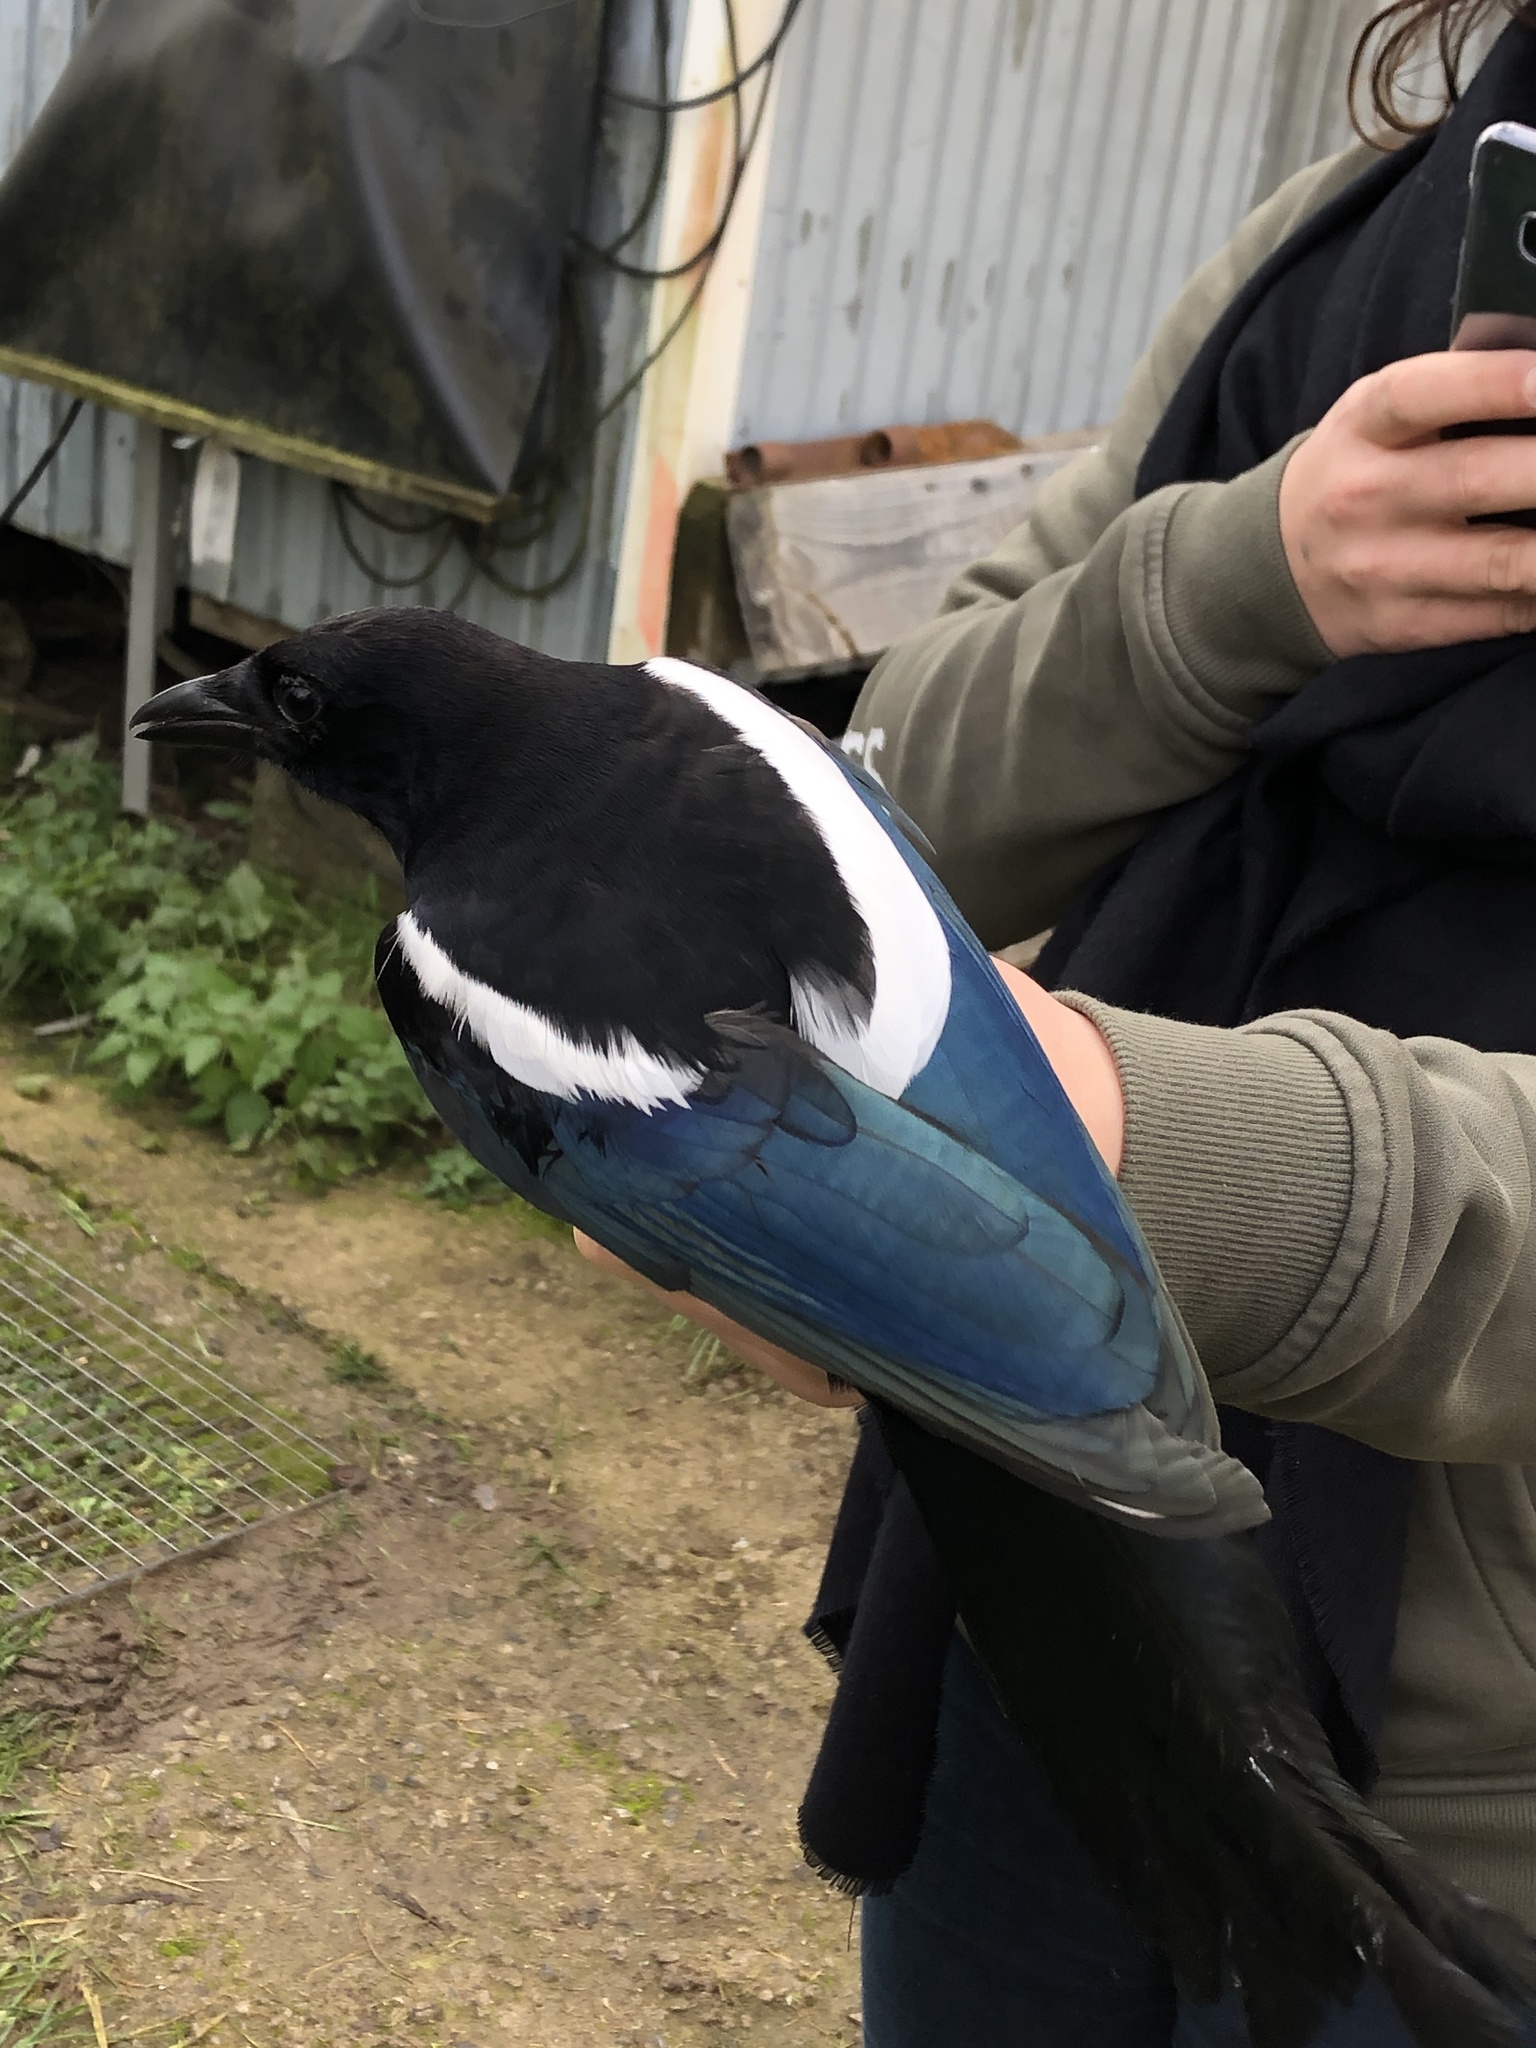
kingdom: Animalia
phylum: Chordata
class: Aves
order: Passeriformes
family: Corvidae
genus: Pica
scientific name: Pica pica
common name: Eurasian magpie
